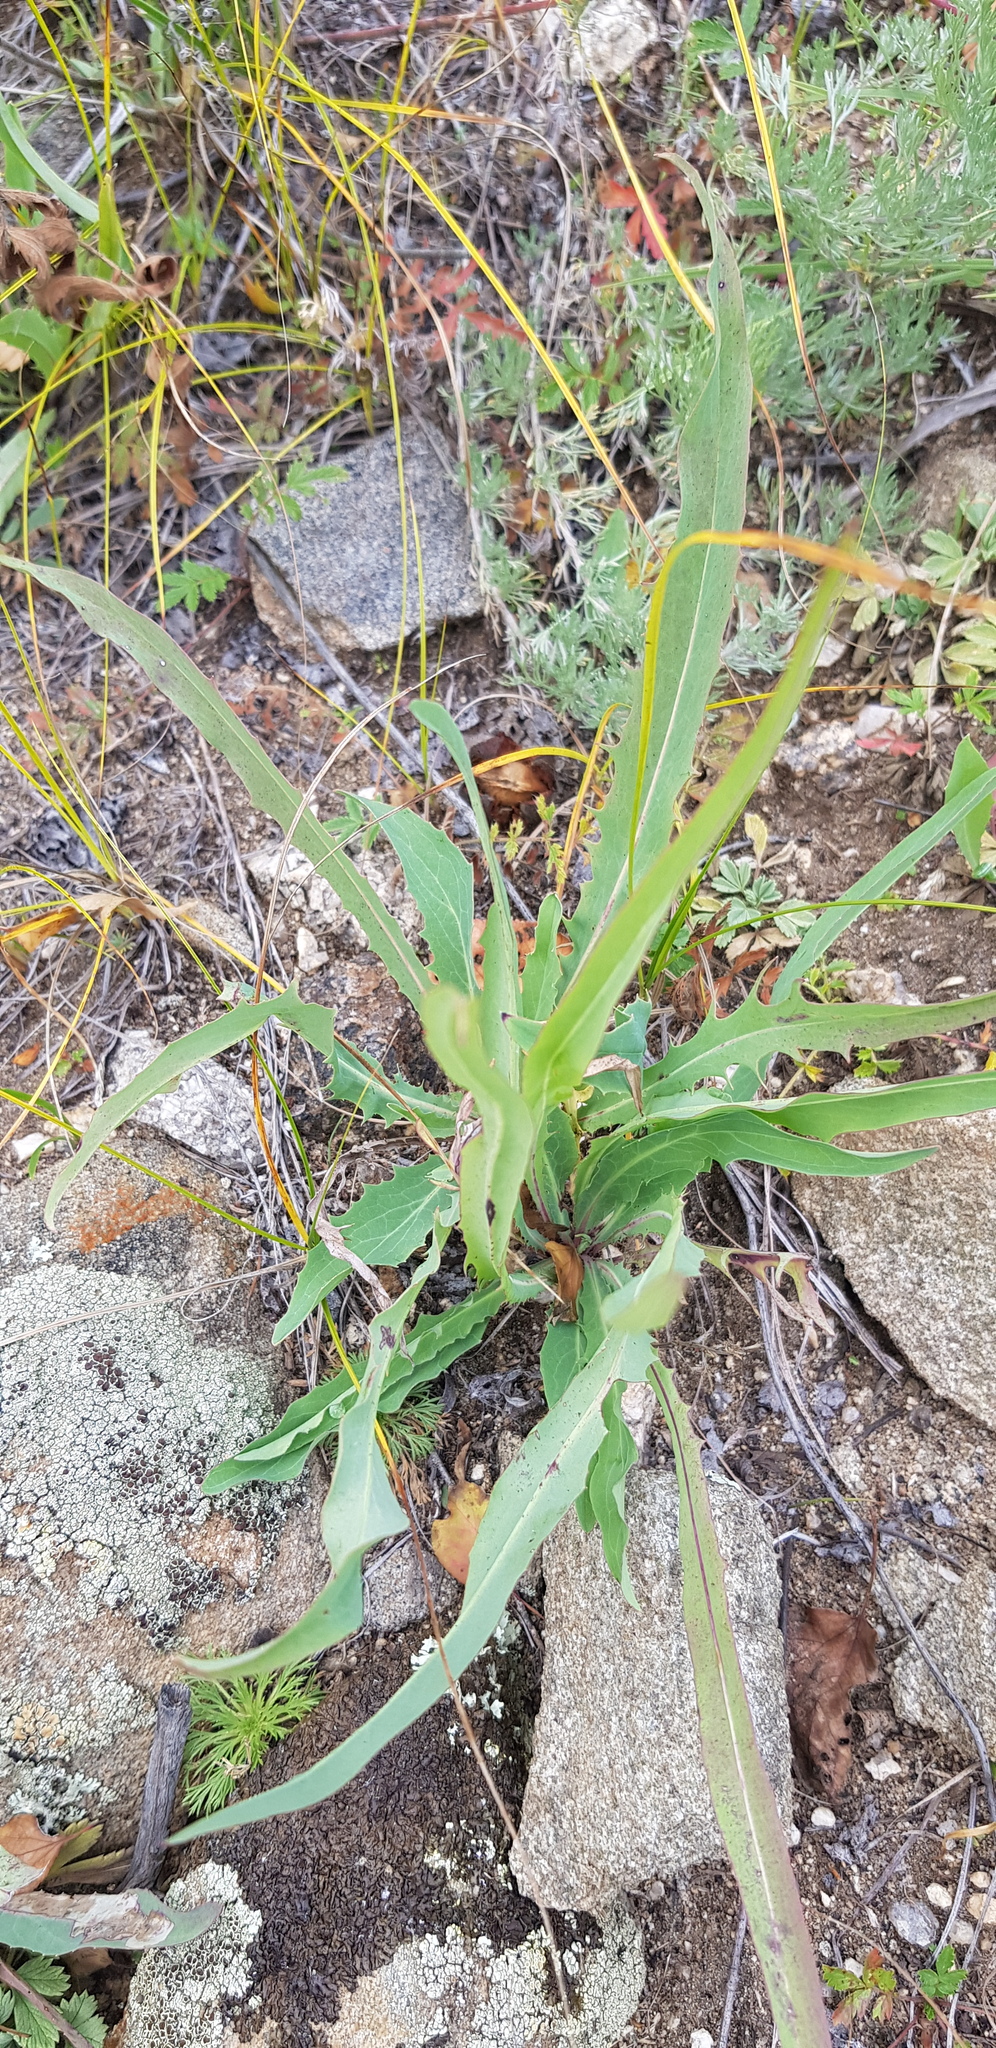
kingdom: Plantae
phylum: Tracheophyta
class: Magnoliopsida
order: Asterales
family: Asteraceae
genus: Ixeris
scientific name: Ixeris chinensis
